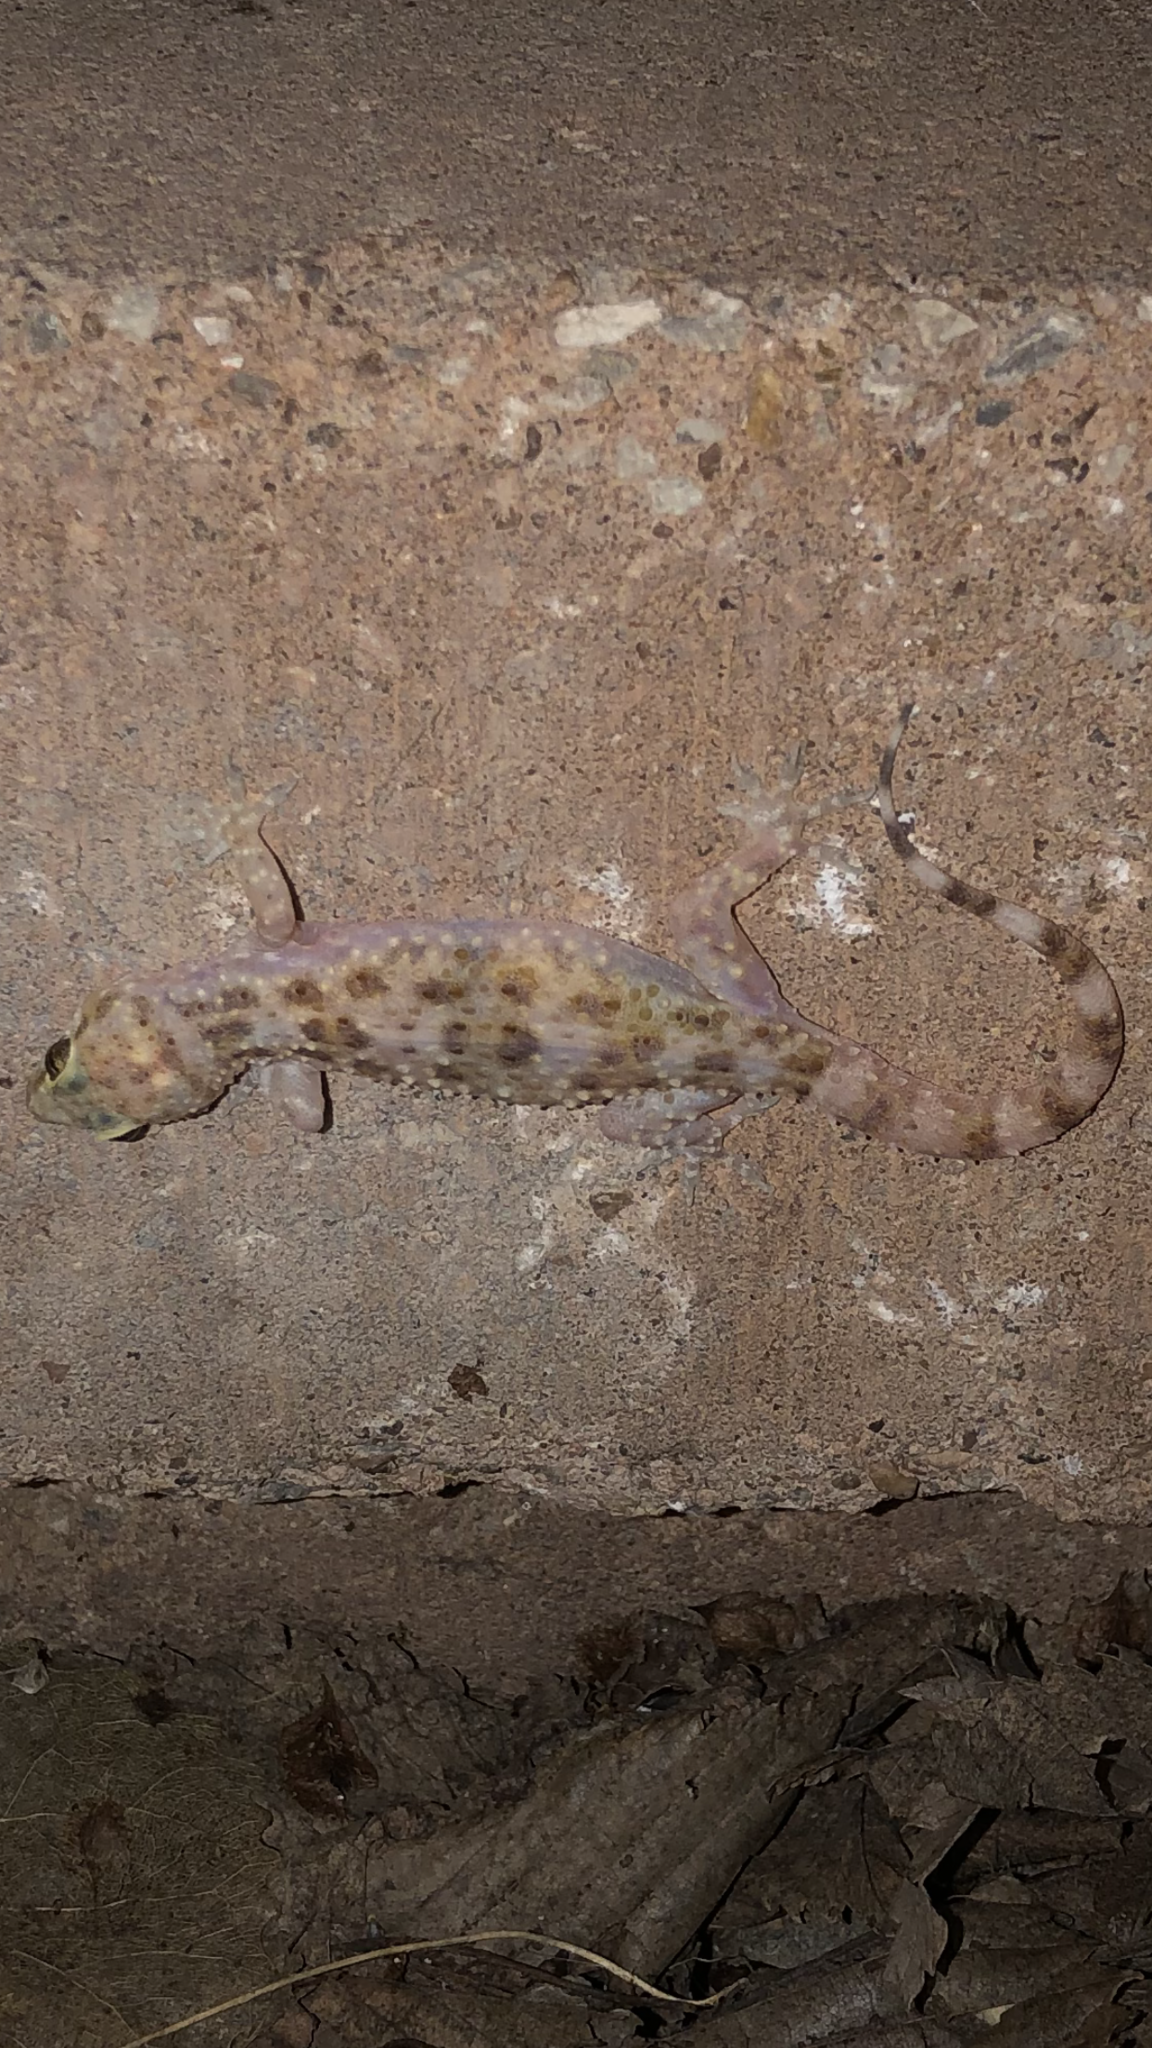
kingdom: Animalia
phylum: Chordata
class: Squamata
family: Gekkonidae
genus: Hemidactylus
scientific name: Hemidactylus turcicus
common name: Turkish gecko
